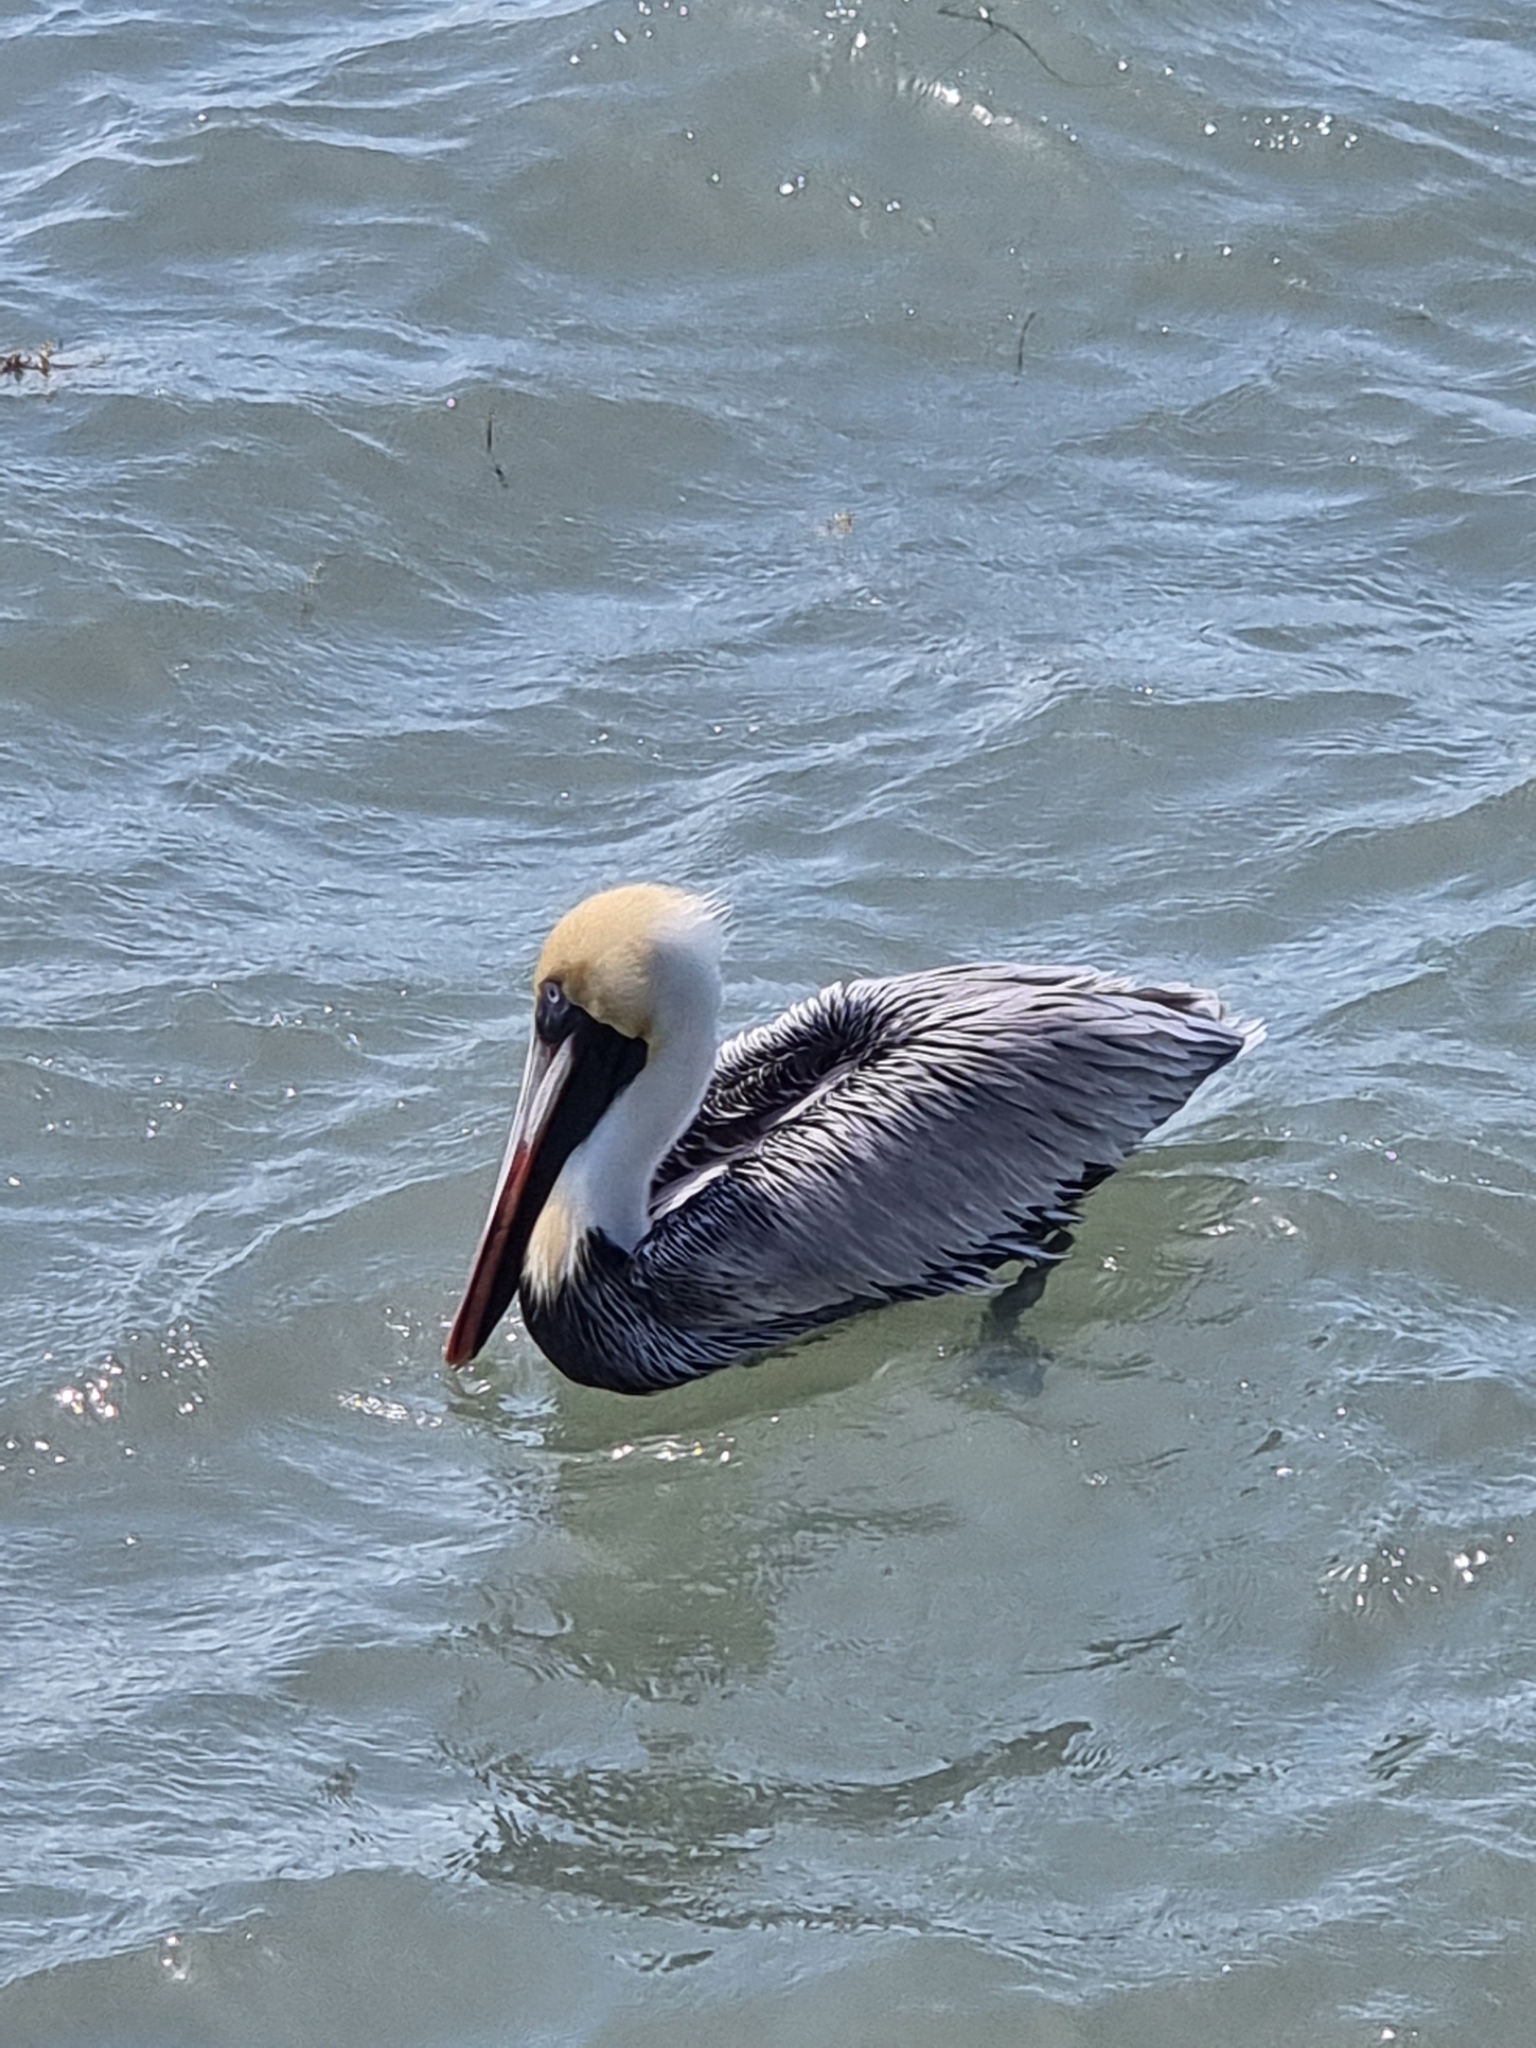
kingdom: Animalia
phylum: Chordata
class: Aves
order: Pelecaniformes
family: Pelecanidae
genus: Pelecanus
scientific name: Pelecanus occidentalis
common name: Brown pelican
